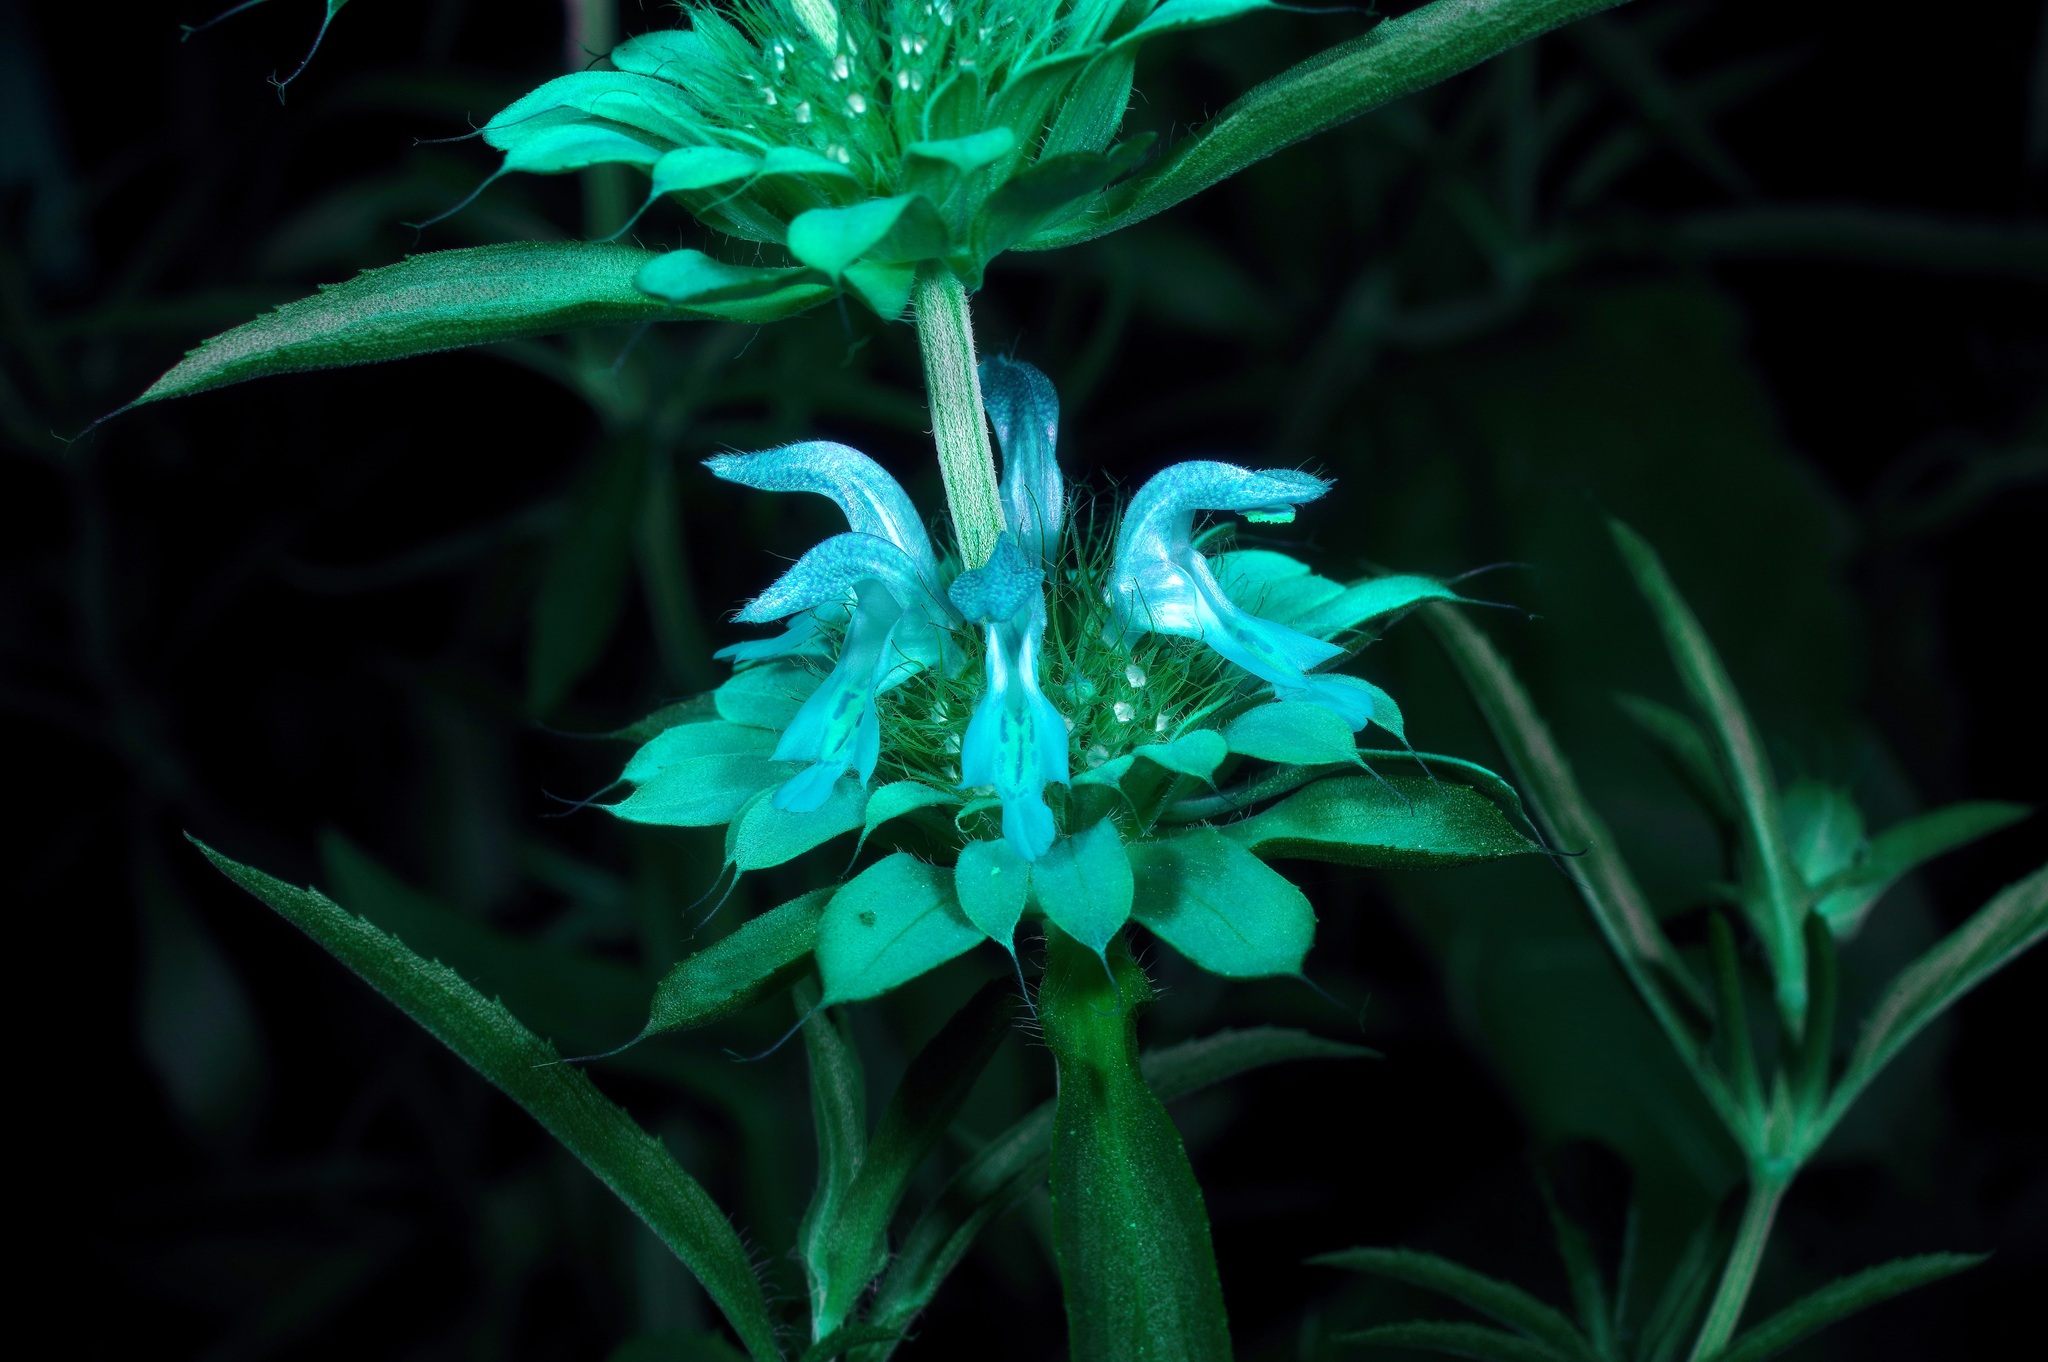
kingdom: Plantae
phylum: Tracheophyta
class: Magnoliopsida
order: Lamiales
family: Lamiaceae
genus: Monarda
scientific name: Monarda citriodora
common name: Lemon beebalm
